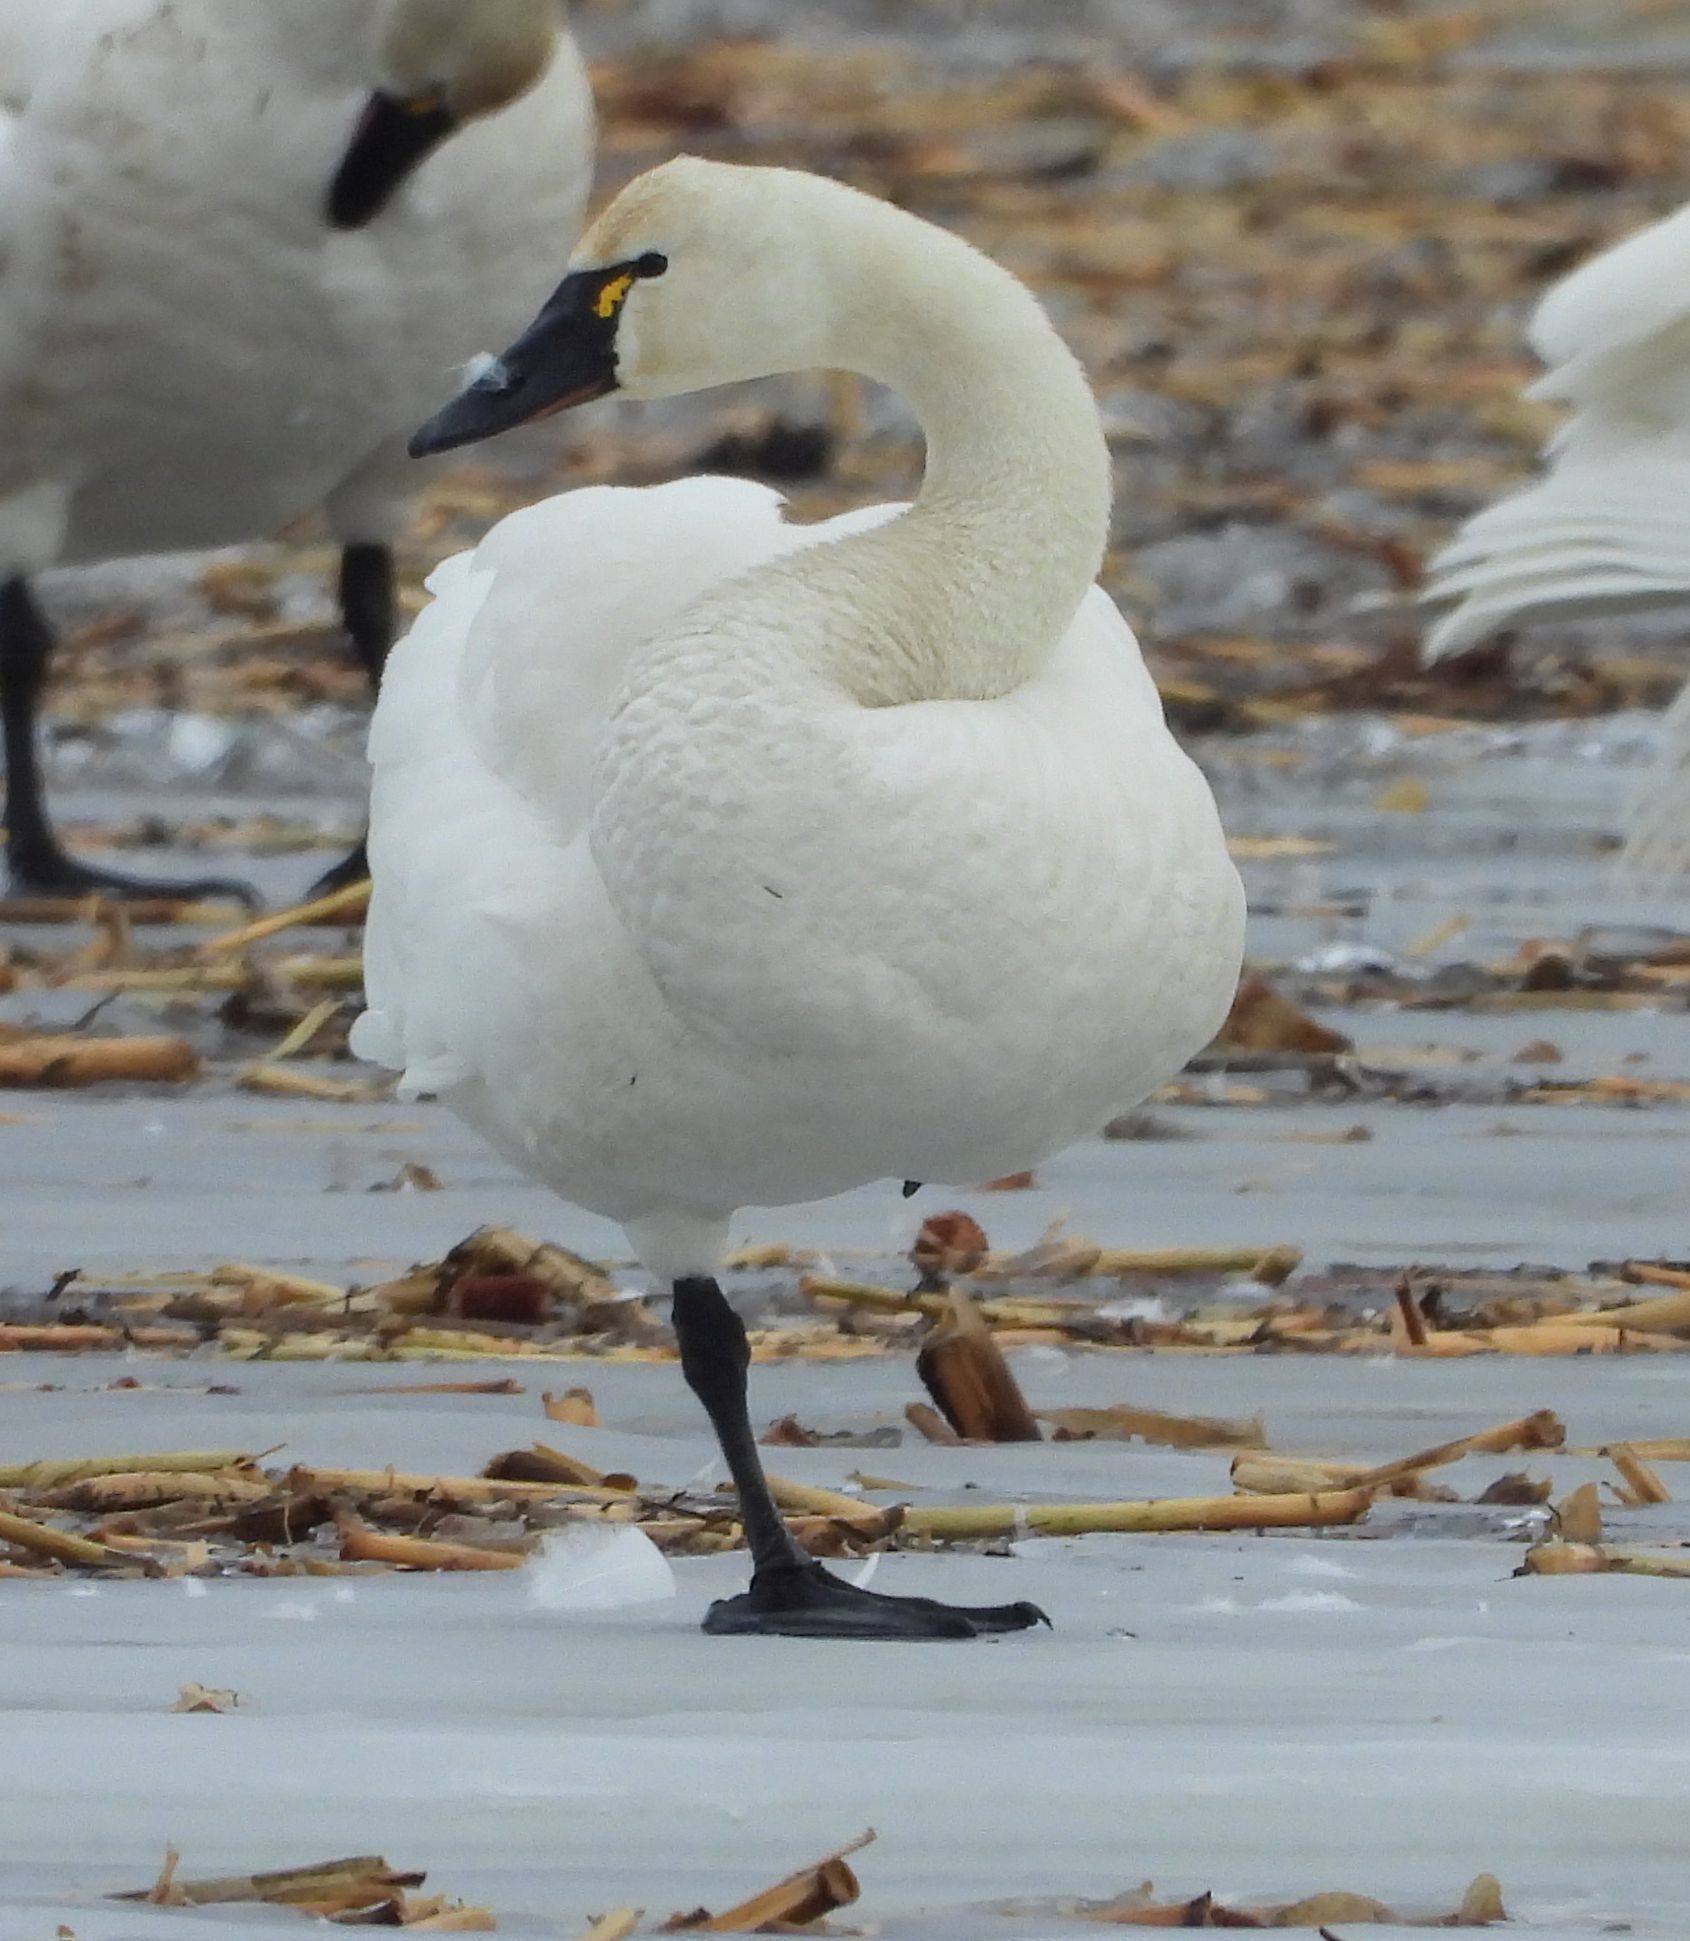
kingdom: Animalia
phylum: Chordata
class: Aves
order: Anseriformes
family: Anatidae
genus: Cygnus
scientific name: Cygnus columbianus
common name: Tundra swan
